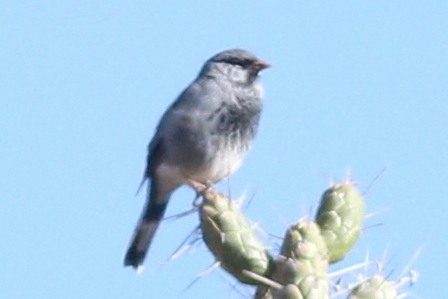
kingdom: Animalia
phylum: Chordata
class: Aves
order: Passeriformes
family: Thraupidae
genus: Porphyrospiza
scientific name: Porphyrospiza alaudina
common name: Band-tailed sierra finch
